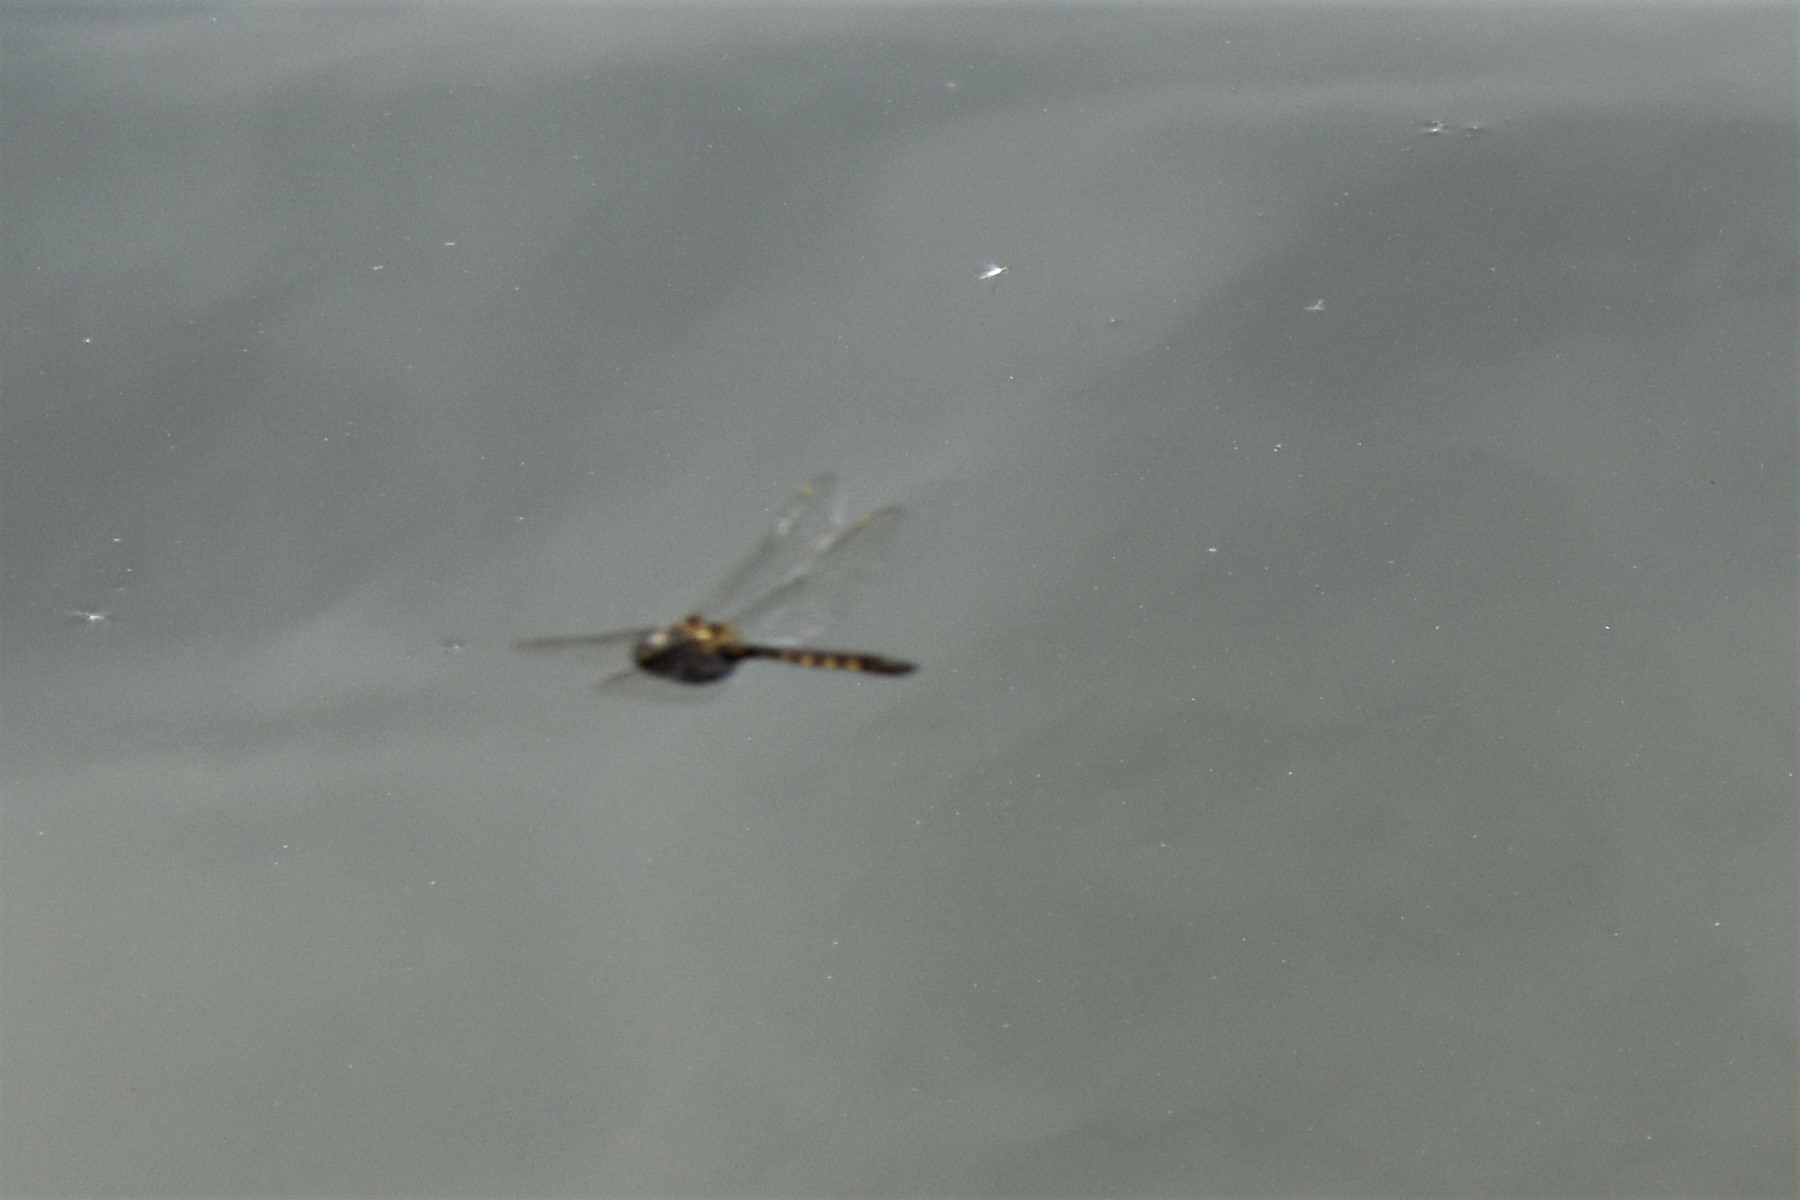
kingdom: Animalia
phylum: Arthropoda
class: Insecta
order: Odonata
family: Corduliidae
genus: Procordulia
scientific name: Procordulia grayi
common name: Yellow spotted dragonfly
